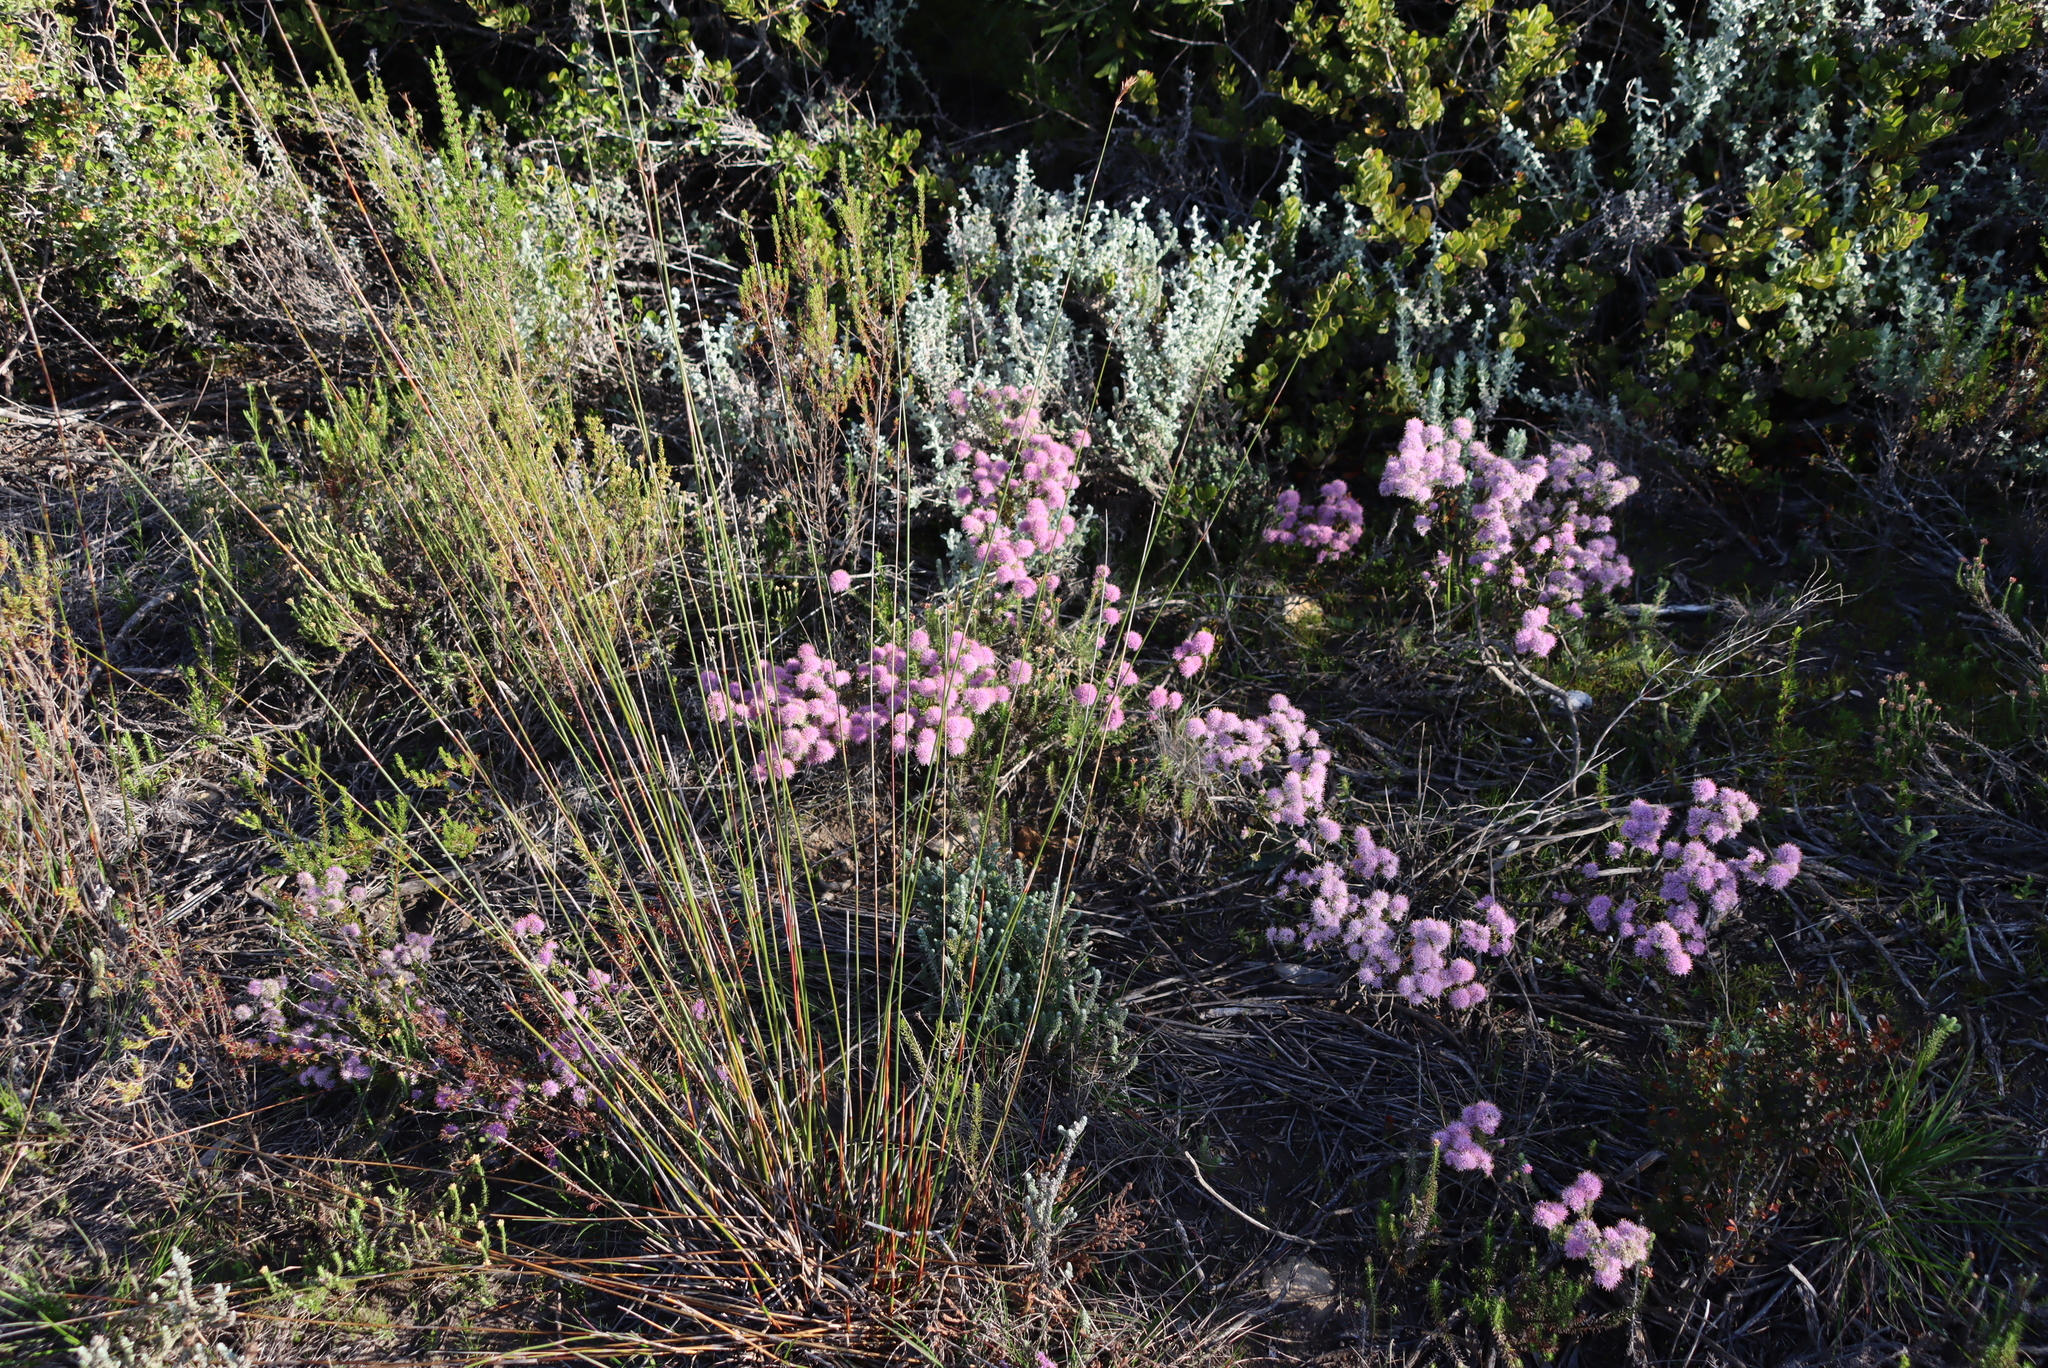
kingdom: Plantae
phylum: Tracheophyta
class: Magnoliopsida
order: Sapindales
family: Rutaceae
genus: Agathosma
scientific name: Agathosma serpyllacea
